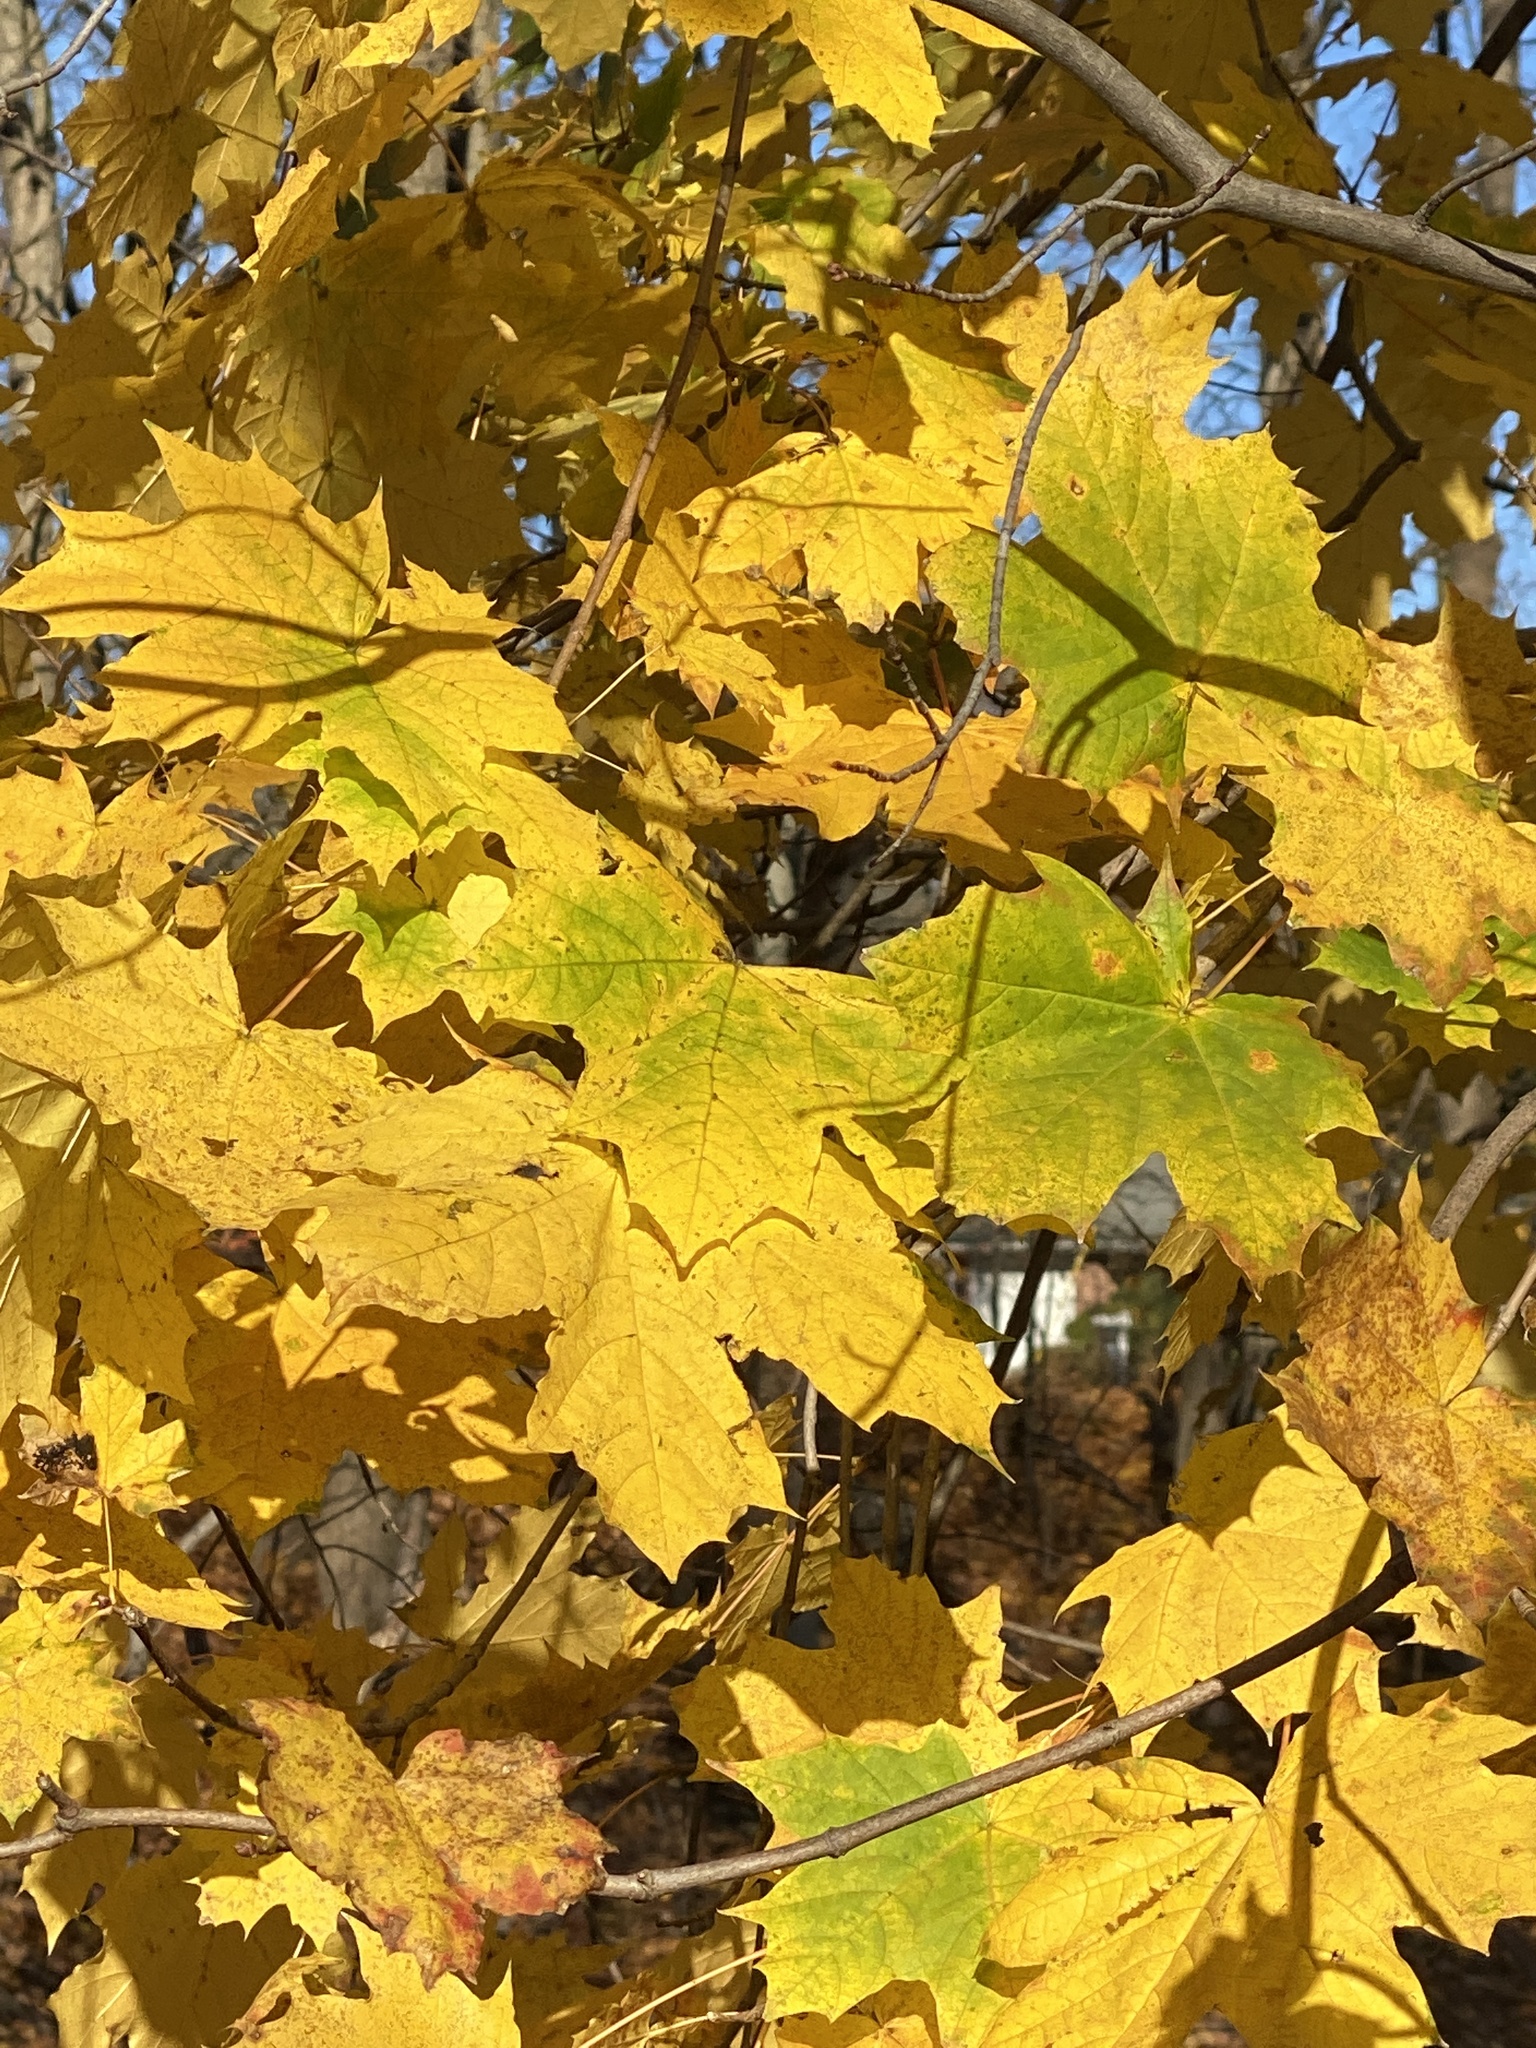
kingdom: Plantae
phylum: Tracheophyta
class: Magnoliopsida
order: Sapindales
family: Sapindaceae
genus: Acer
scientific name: Acer platanoides
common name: Norway maple
